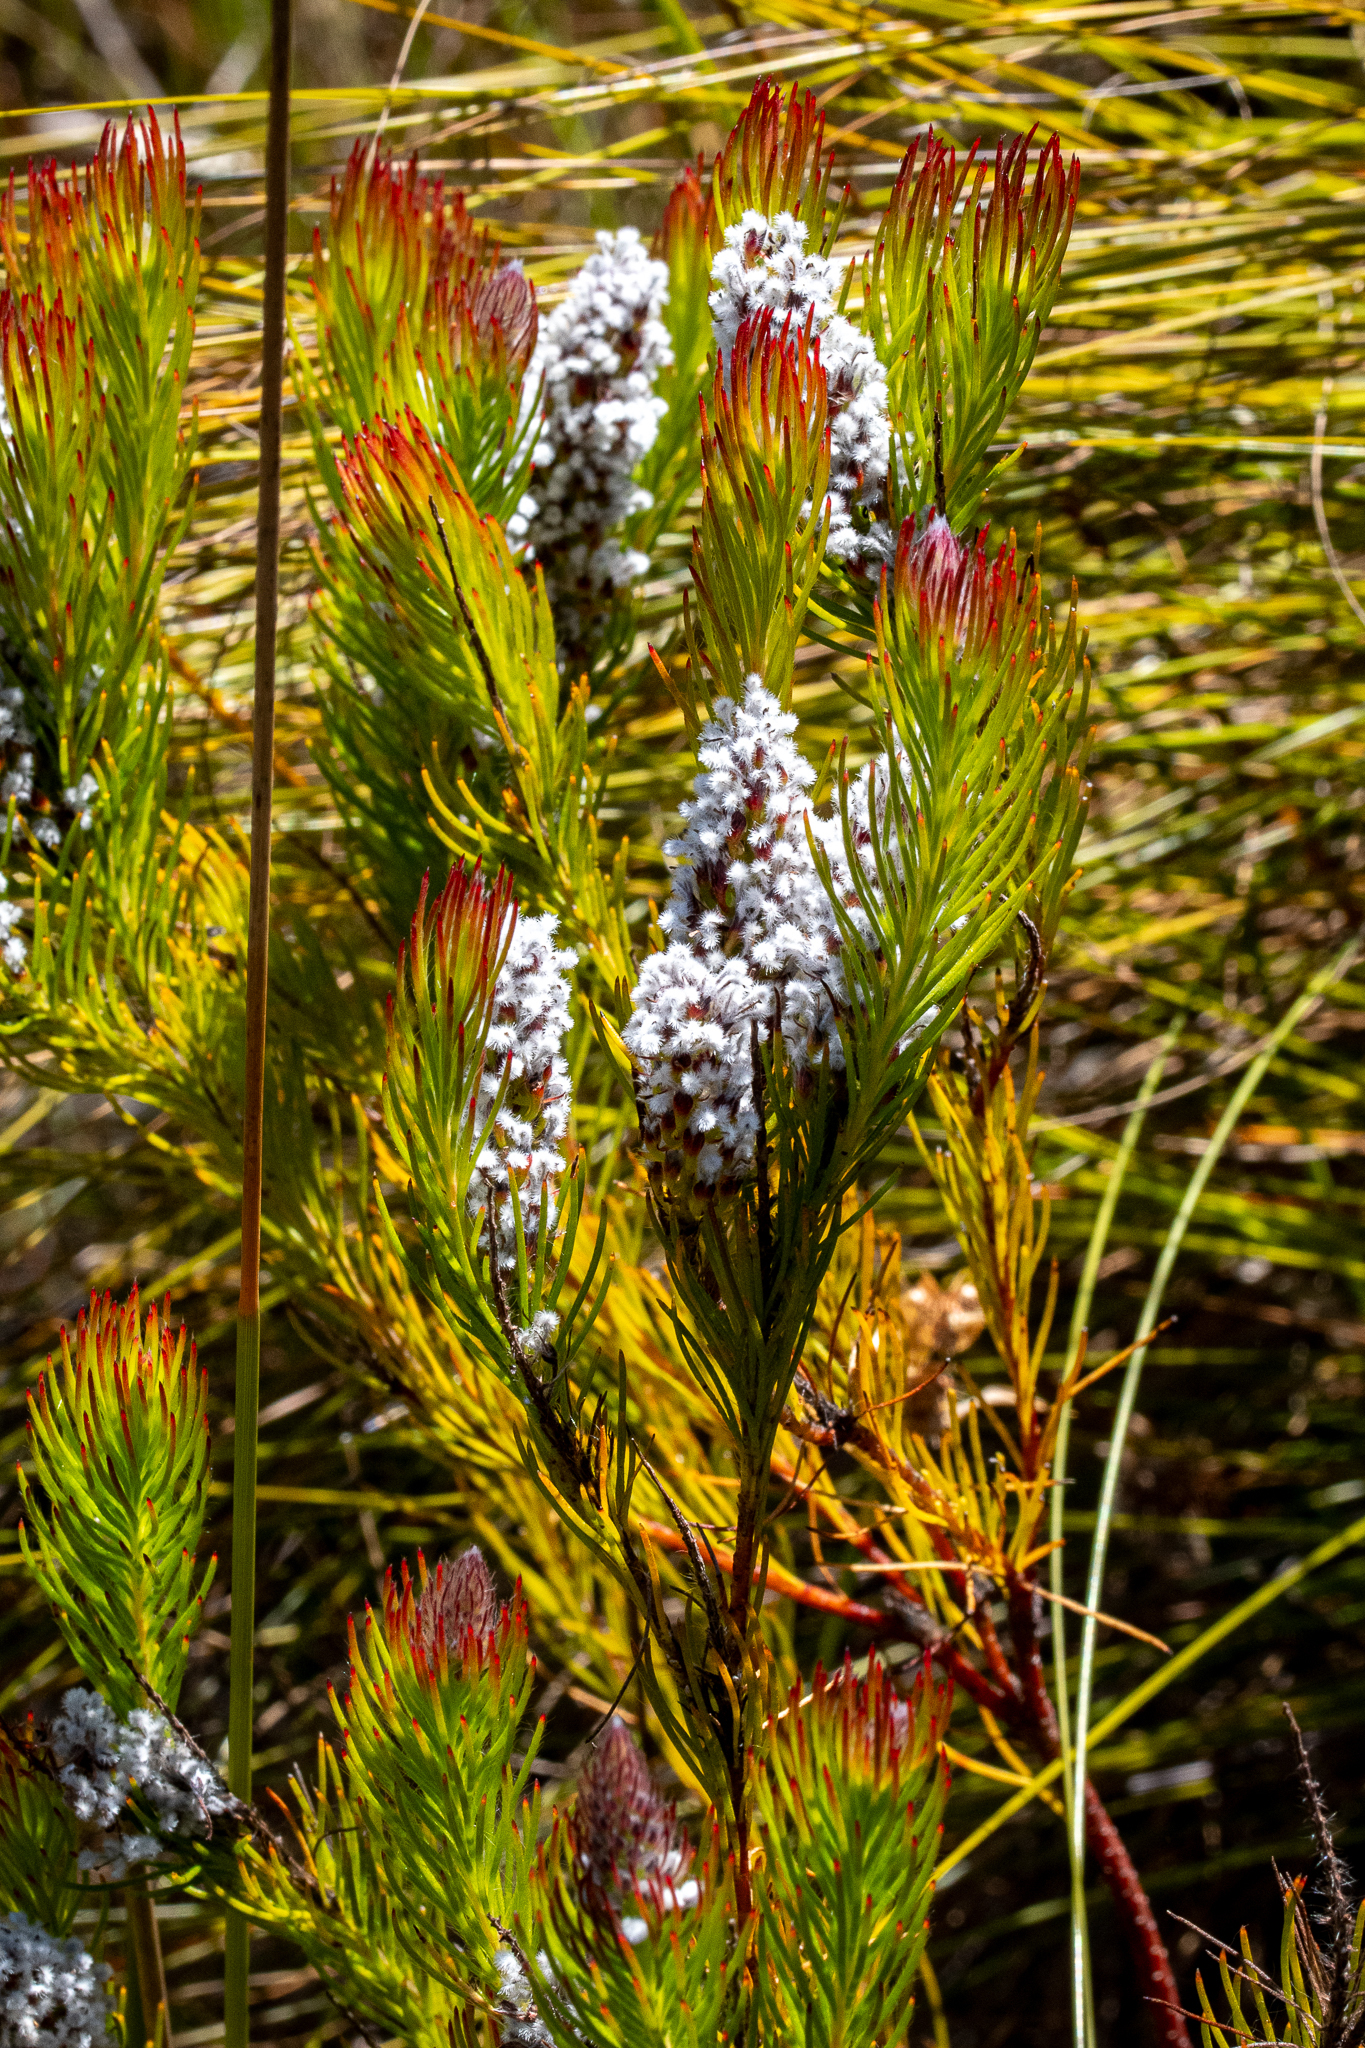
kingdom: Plantae
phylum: Tracheophyta
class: Magnoliopsida
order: Proteales
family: Proteaceae
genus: Spatalla
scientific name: Spatalla mollis
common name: Woolly spoon
